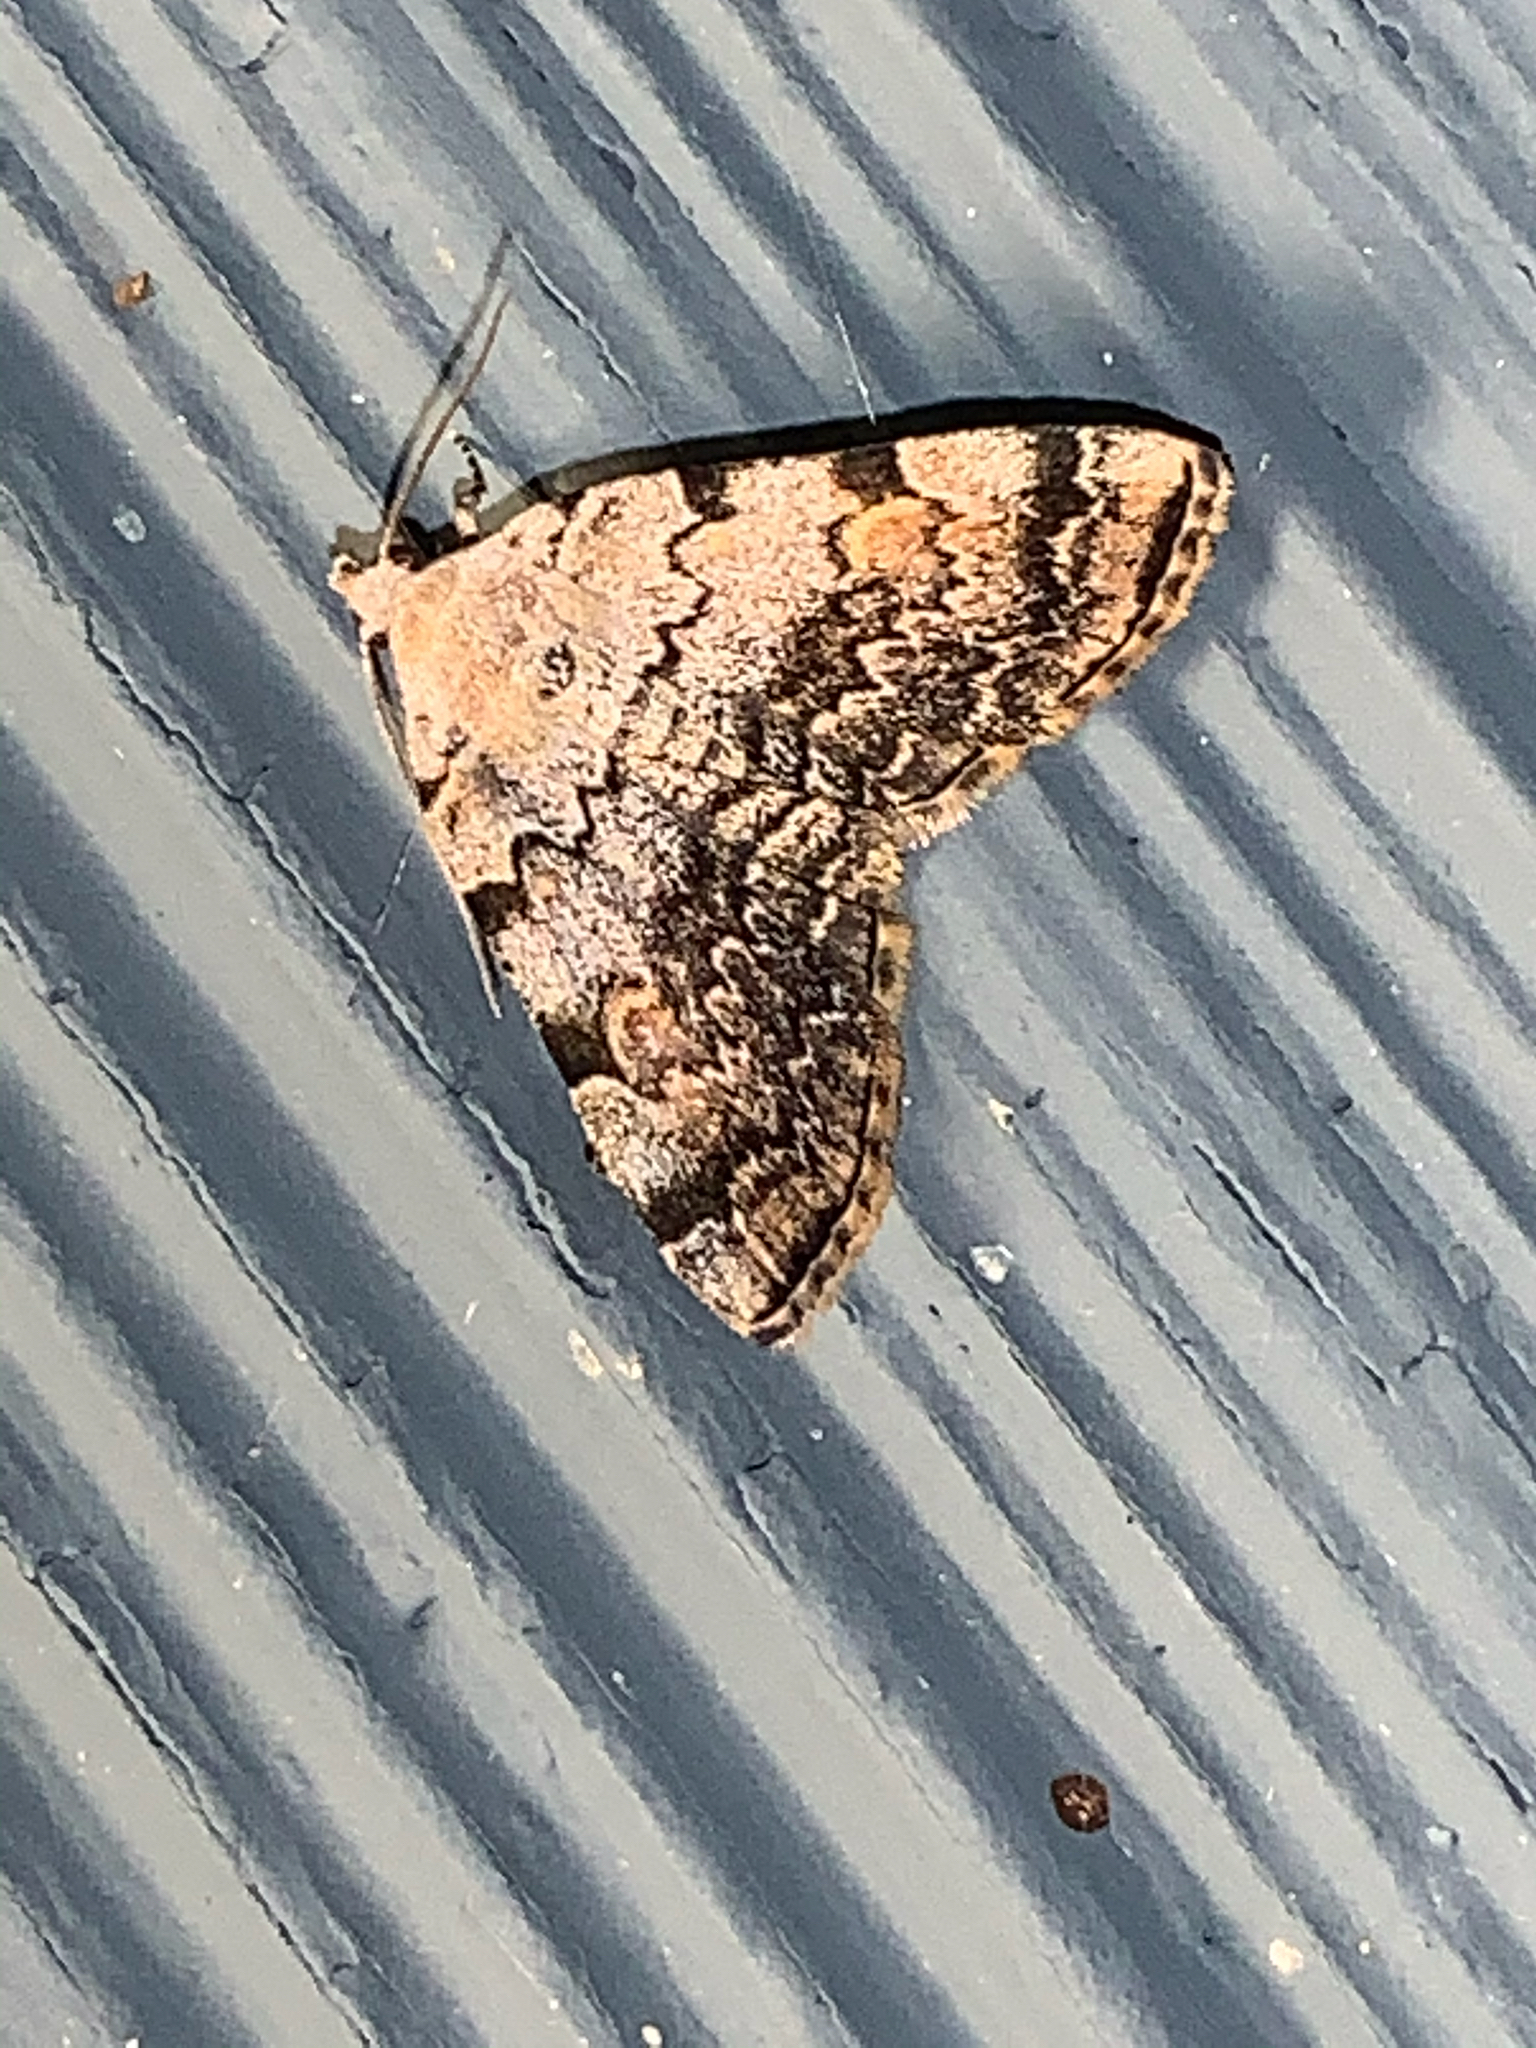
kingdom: Animalia
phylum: Arthropoda
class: Insecta
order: Lepidoptera
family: Erebidae
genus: Idia
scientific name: Idia americalis
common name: American idia moth
